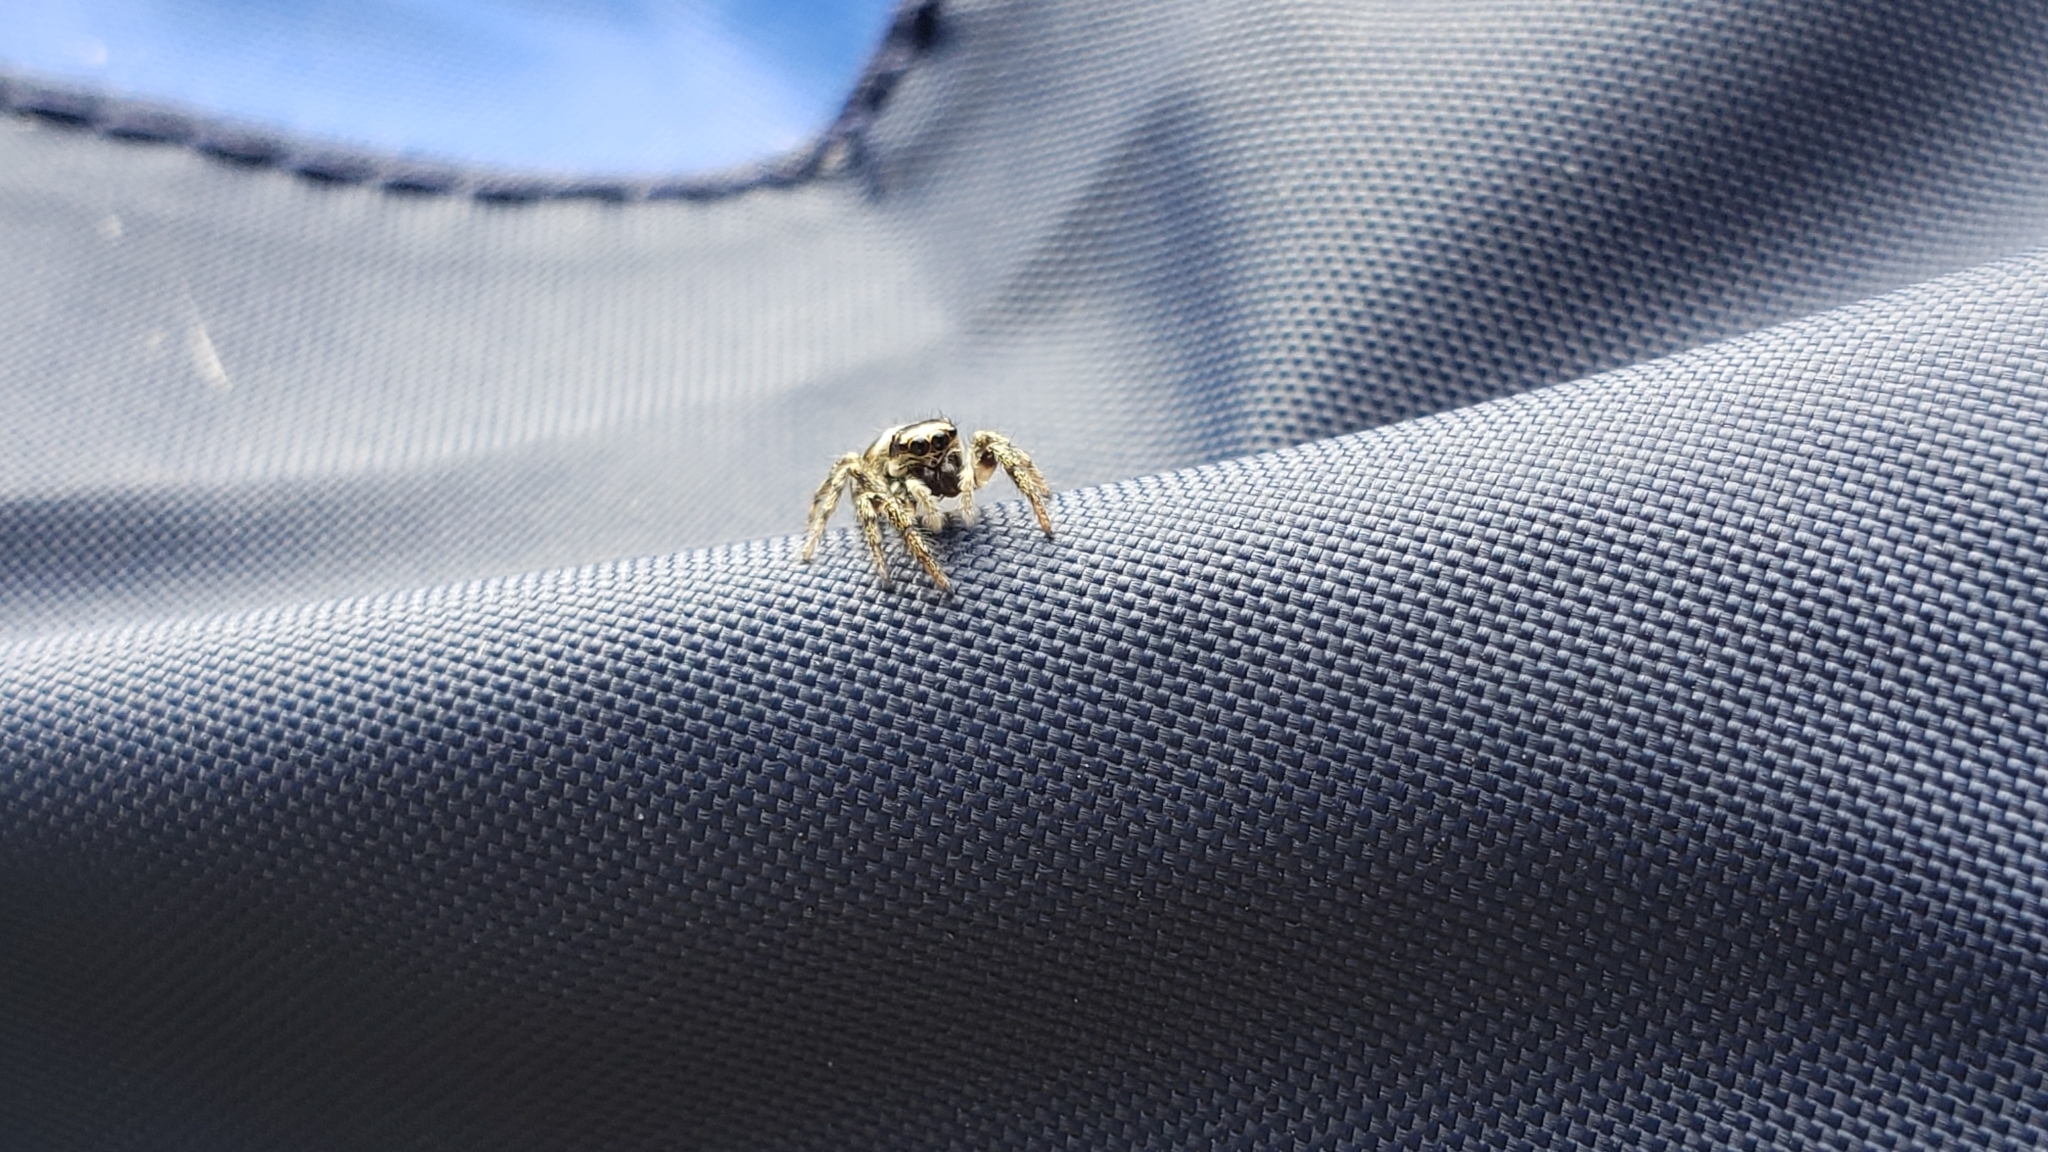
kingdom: Animalia
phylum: Arthropoda
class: Arachnida
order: Araneae
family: Salticidae
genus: Salticus
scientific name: Salticus scenicus
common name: Zebra jumper
